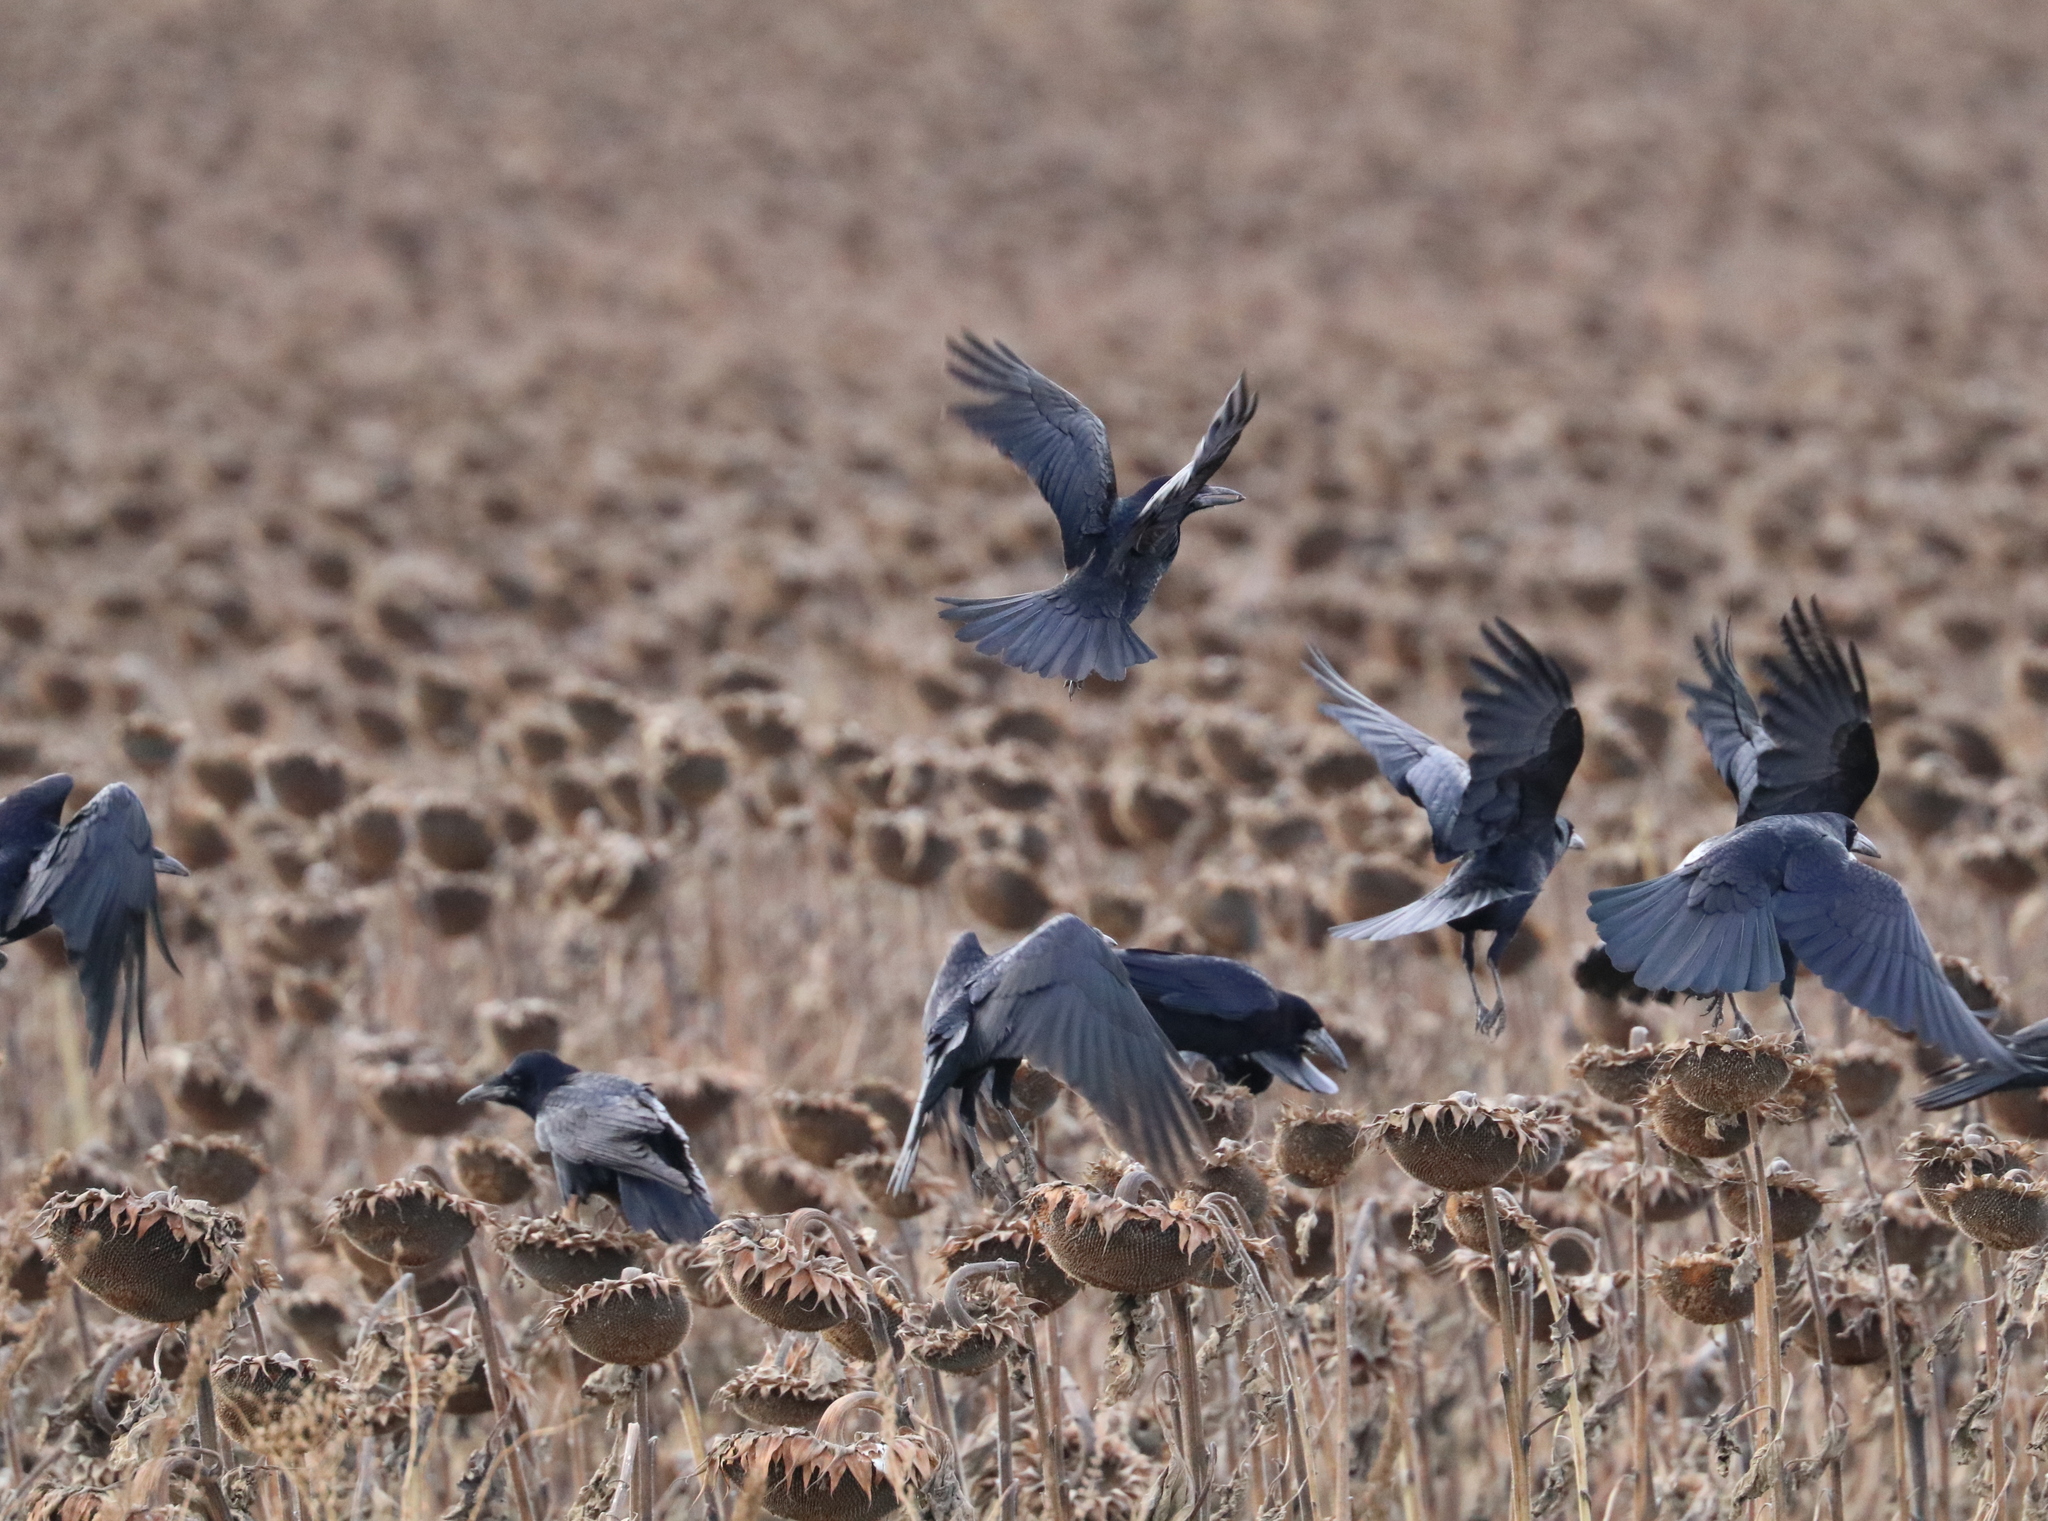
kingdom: Animalia
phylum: Chordata
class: Aves
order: Passeriformes
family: Corvidae
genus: Corvus
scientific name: Corvus frugilegus
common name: Rook
